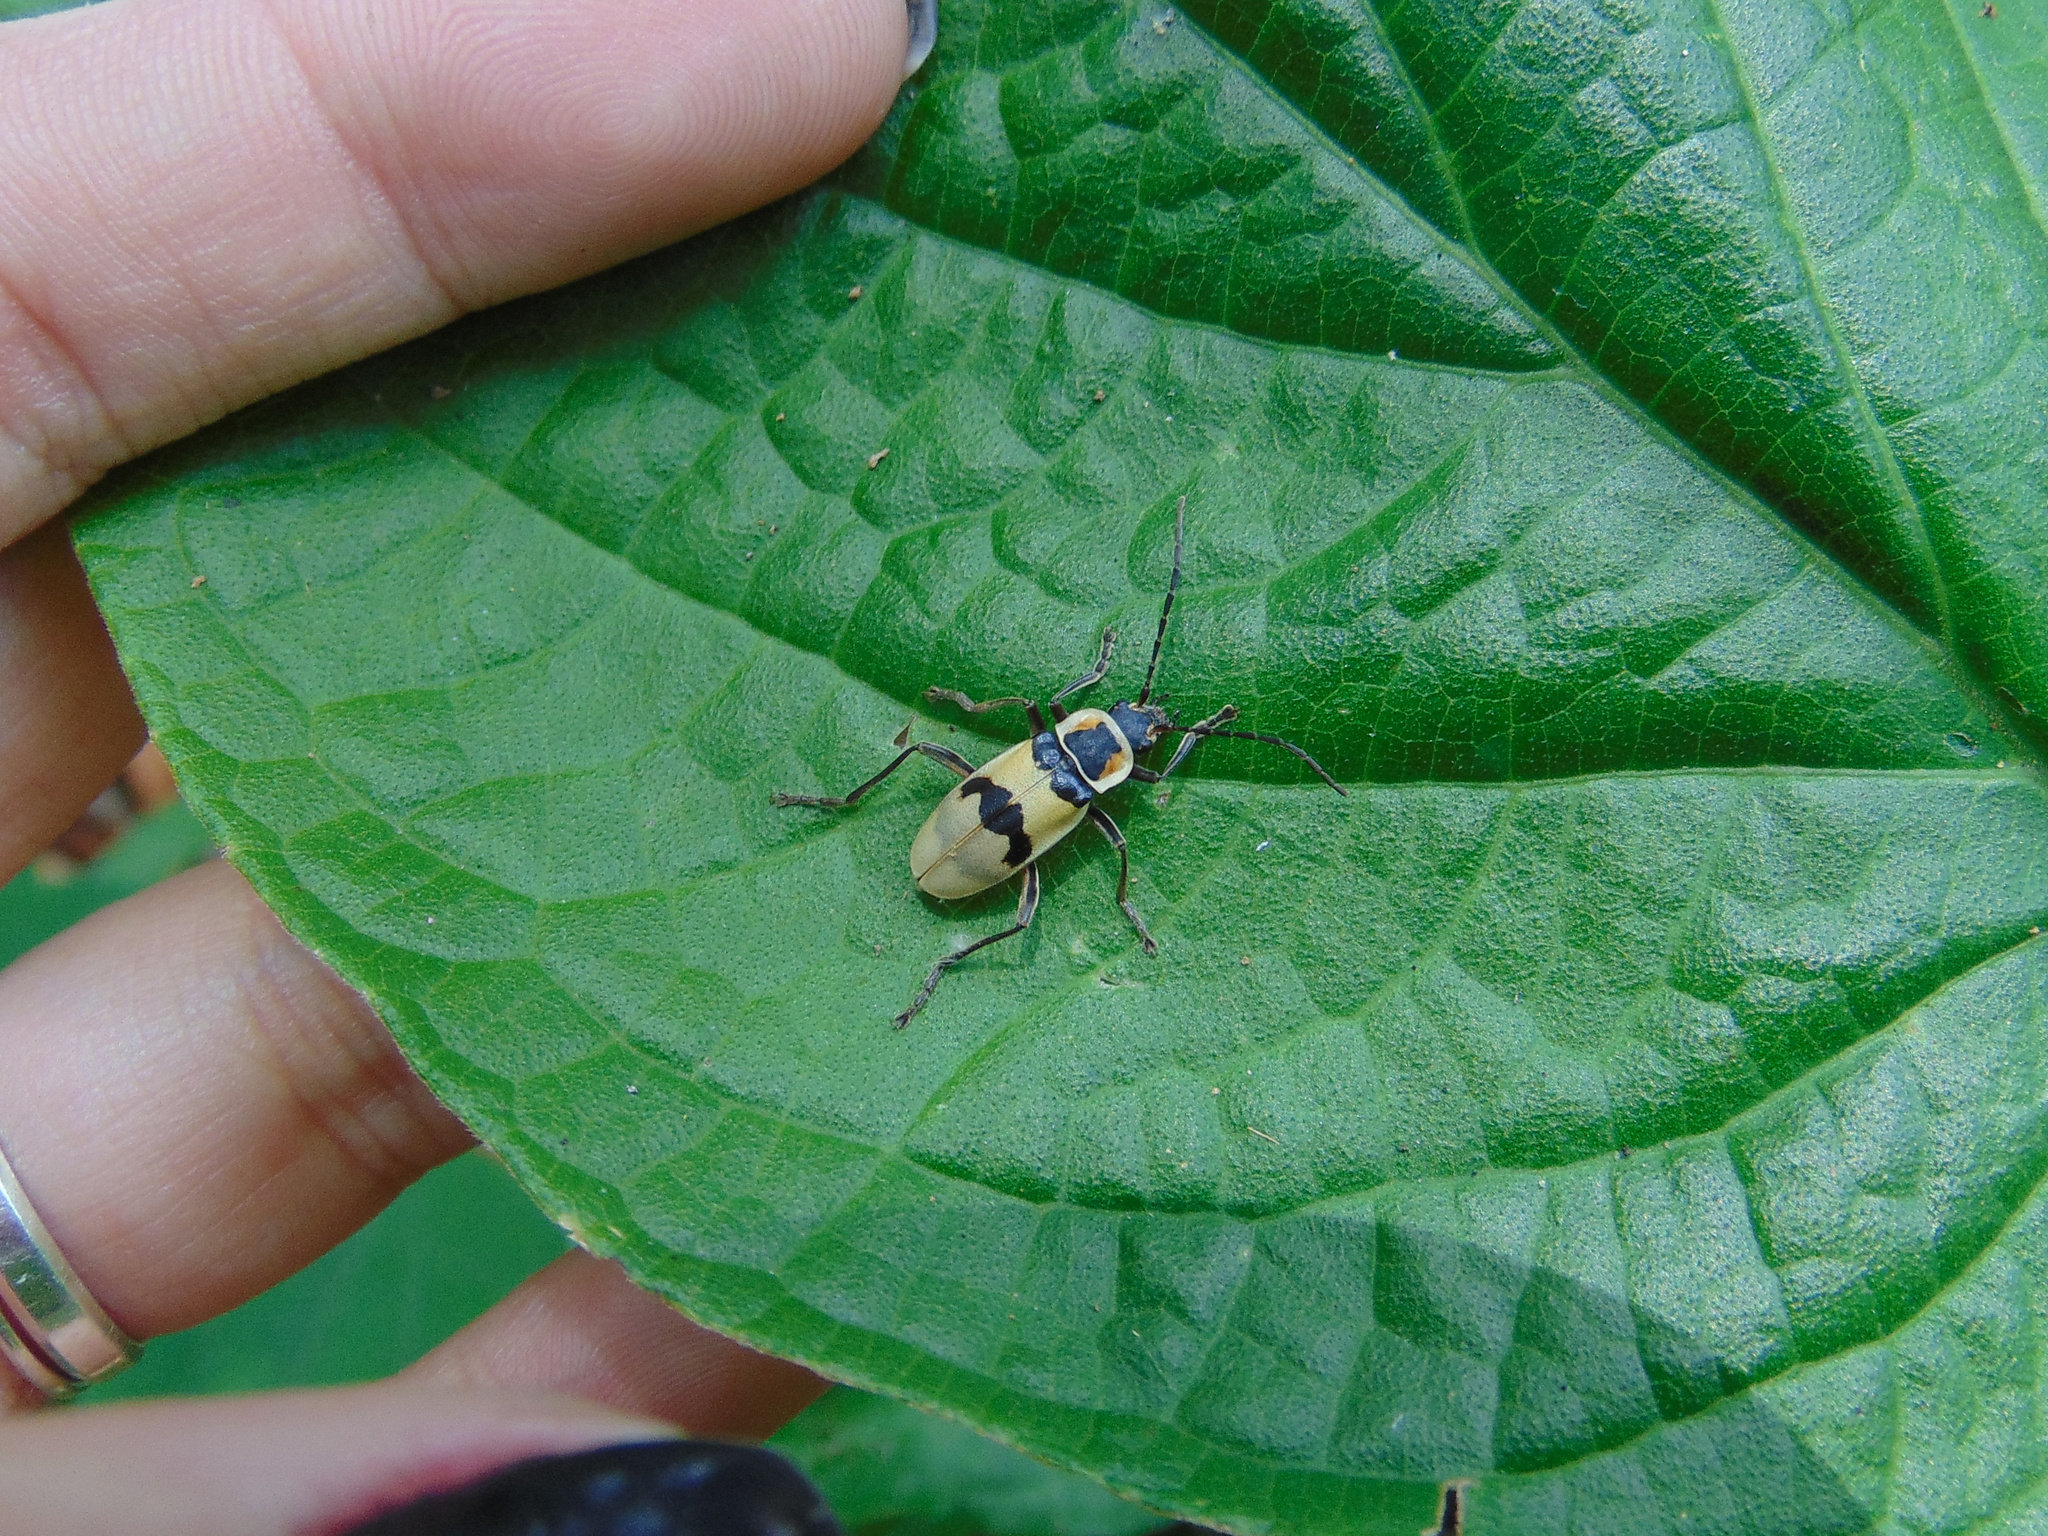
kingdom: Animalia
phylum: Arthropoda
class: Insecta
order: Coleoptera
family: Cantharidae
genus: Chauliognathus
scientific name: Chauliognathus
